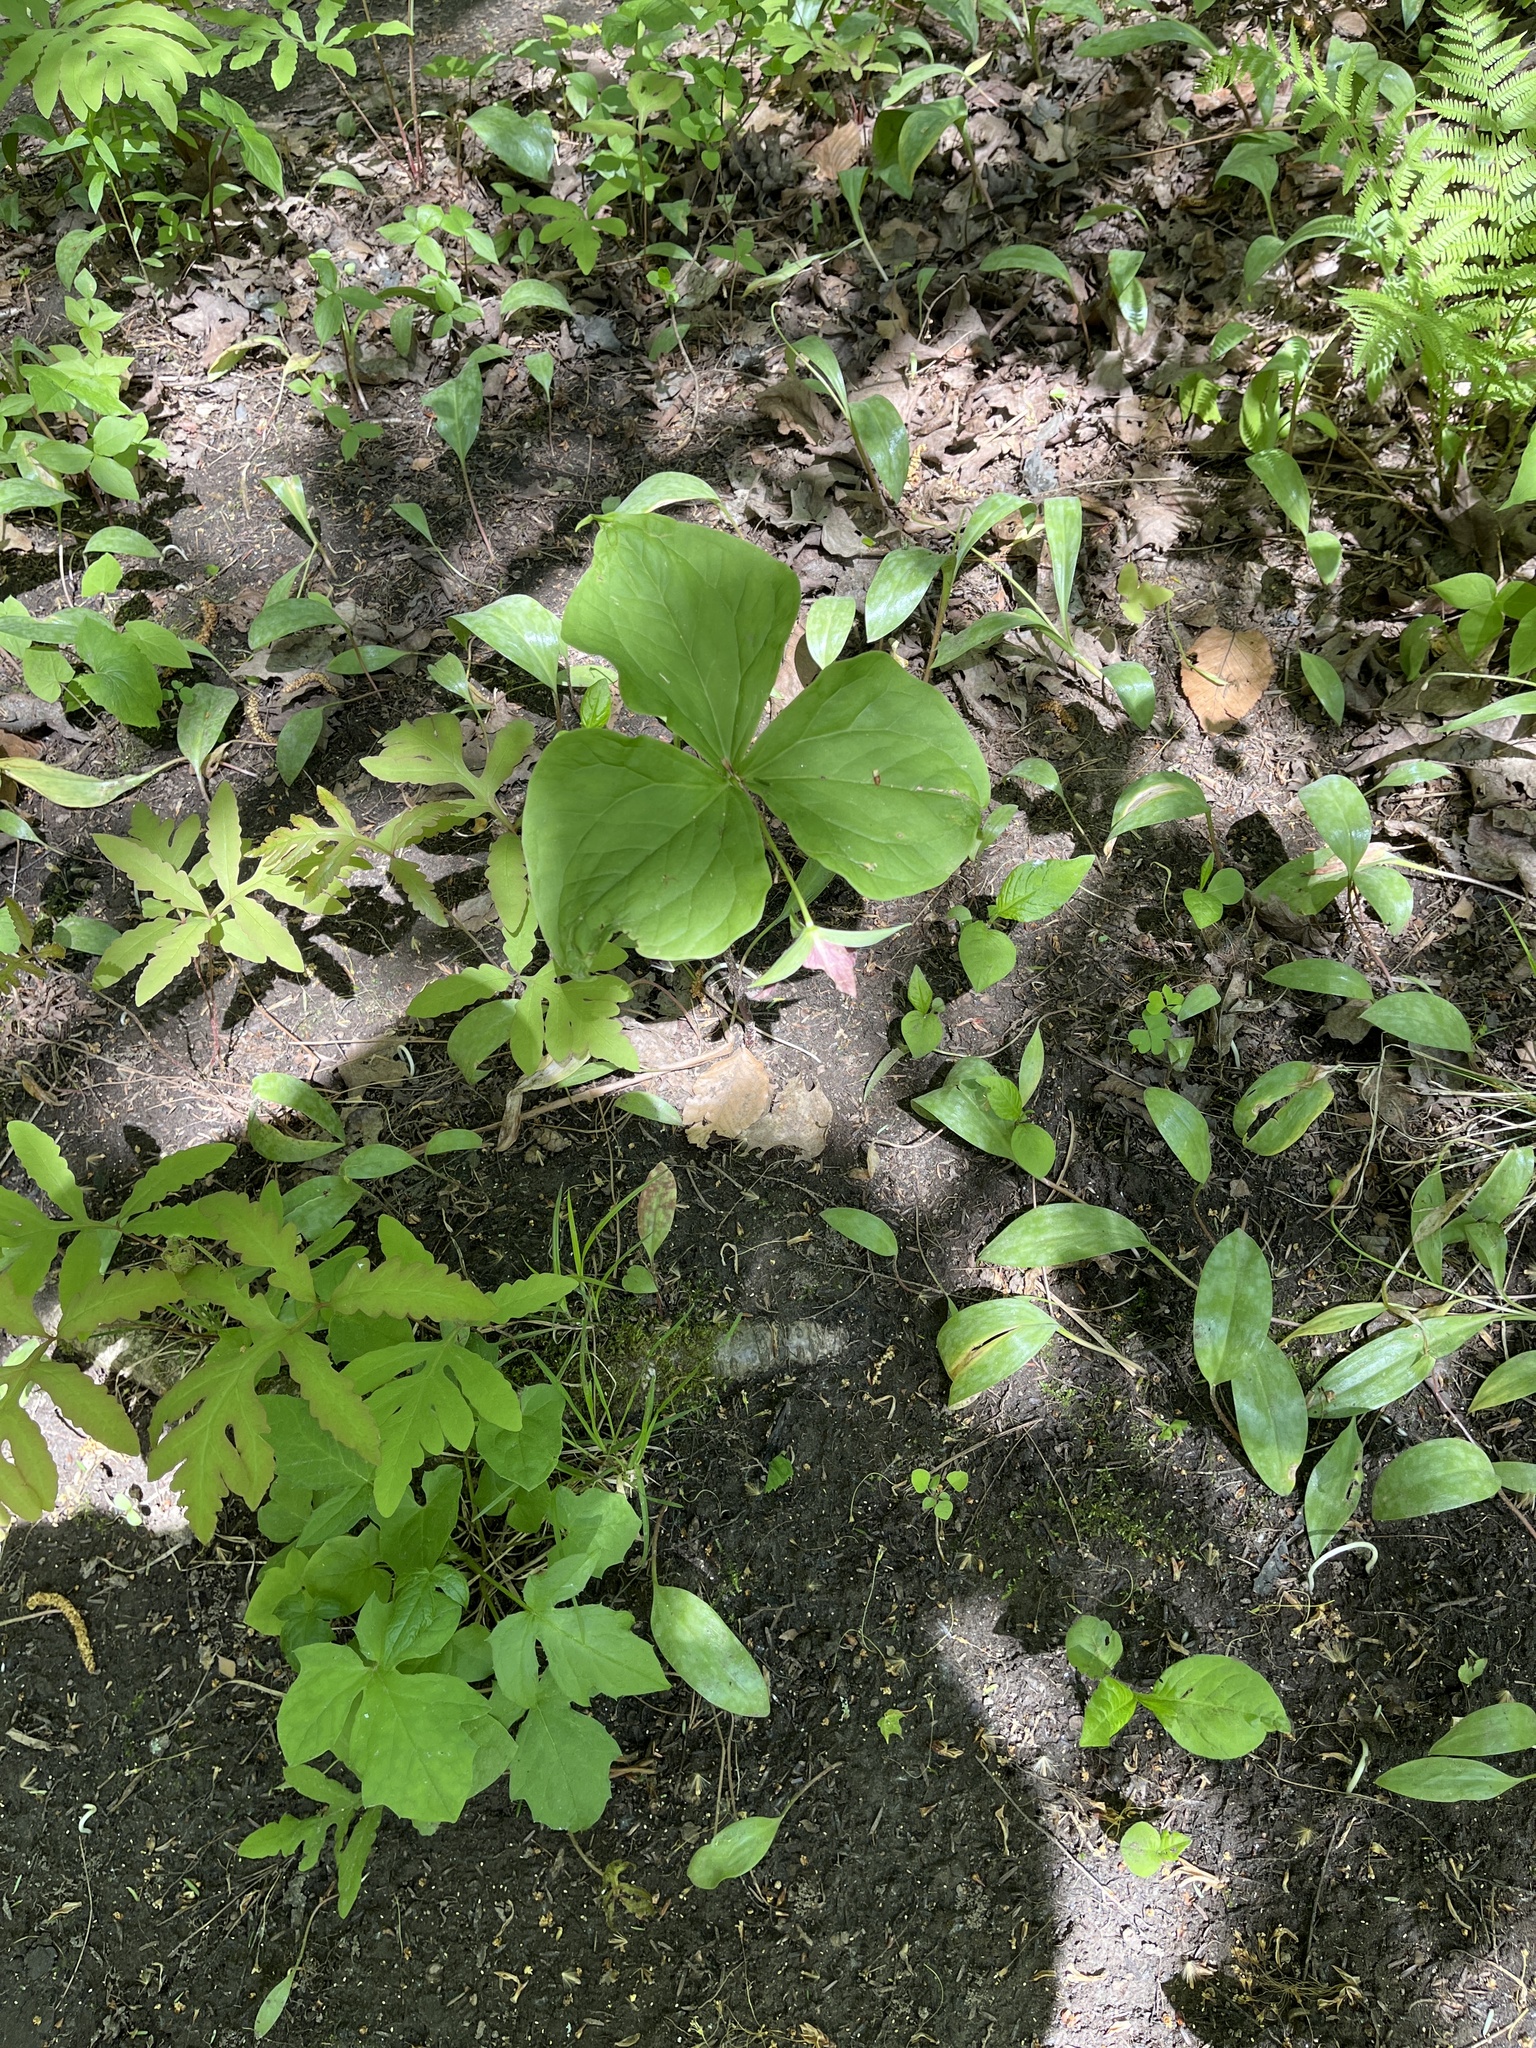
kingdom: Plantae
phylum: Tracheophyta
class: Liliopsida
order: Liliales
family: Melanthiaceae
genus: Trillium
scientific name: Trillium erectum
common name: Purple trillium
